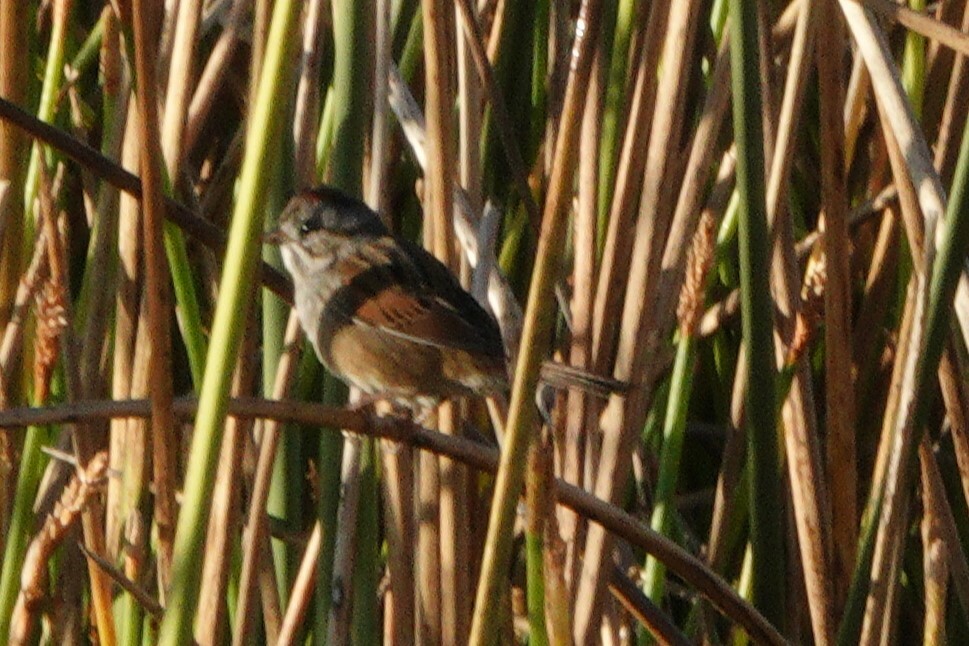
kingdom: Animalia
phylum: Chordata
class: Aves
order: Passeriformes
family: Passerellidae
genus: Melospiza
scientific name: Melospiza georgiana
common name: Swamp sparrow
